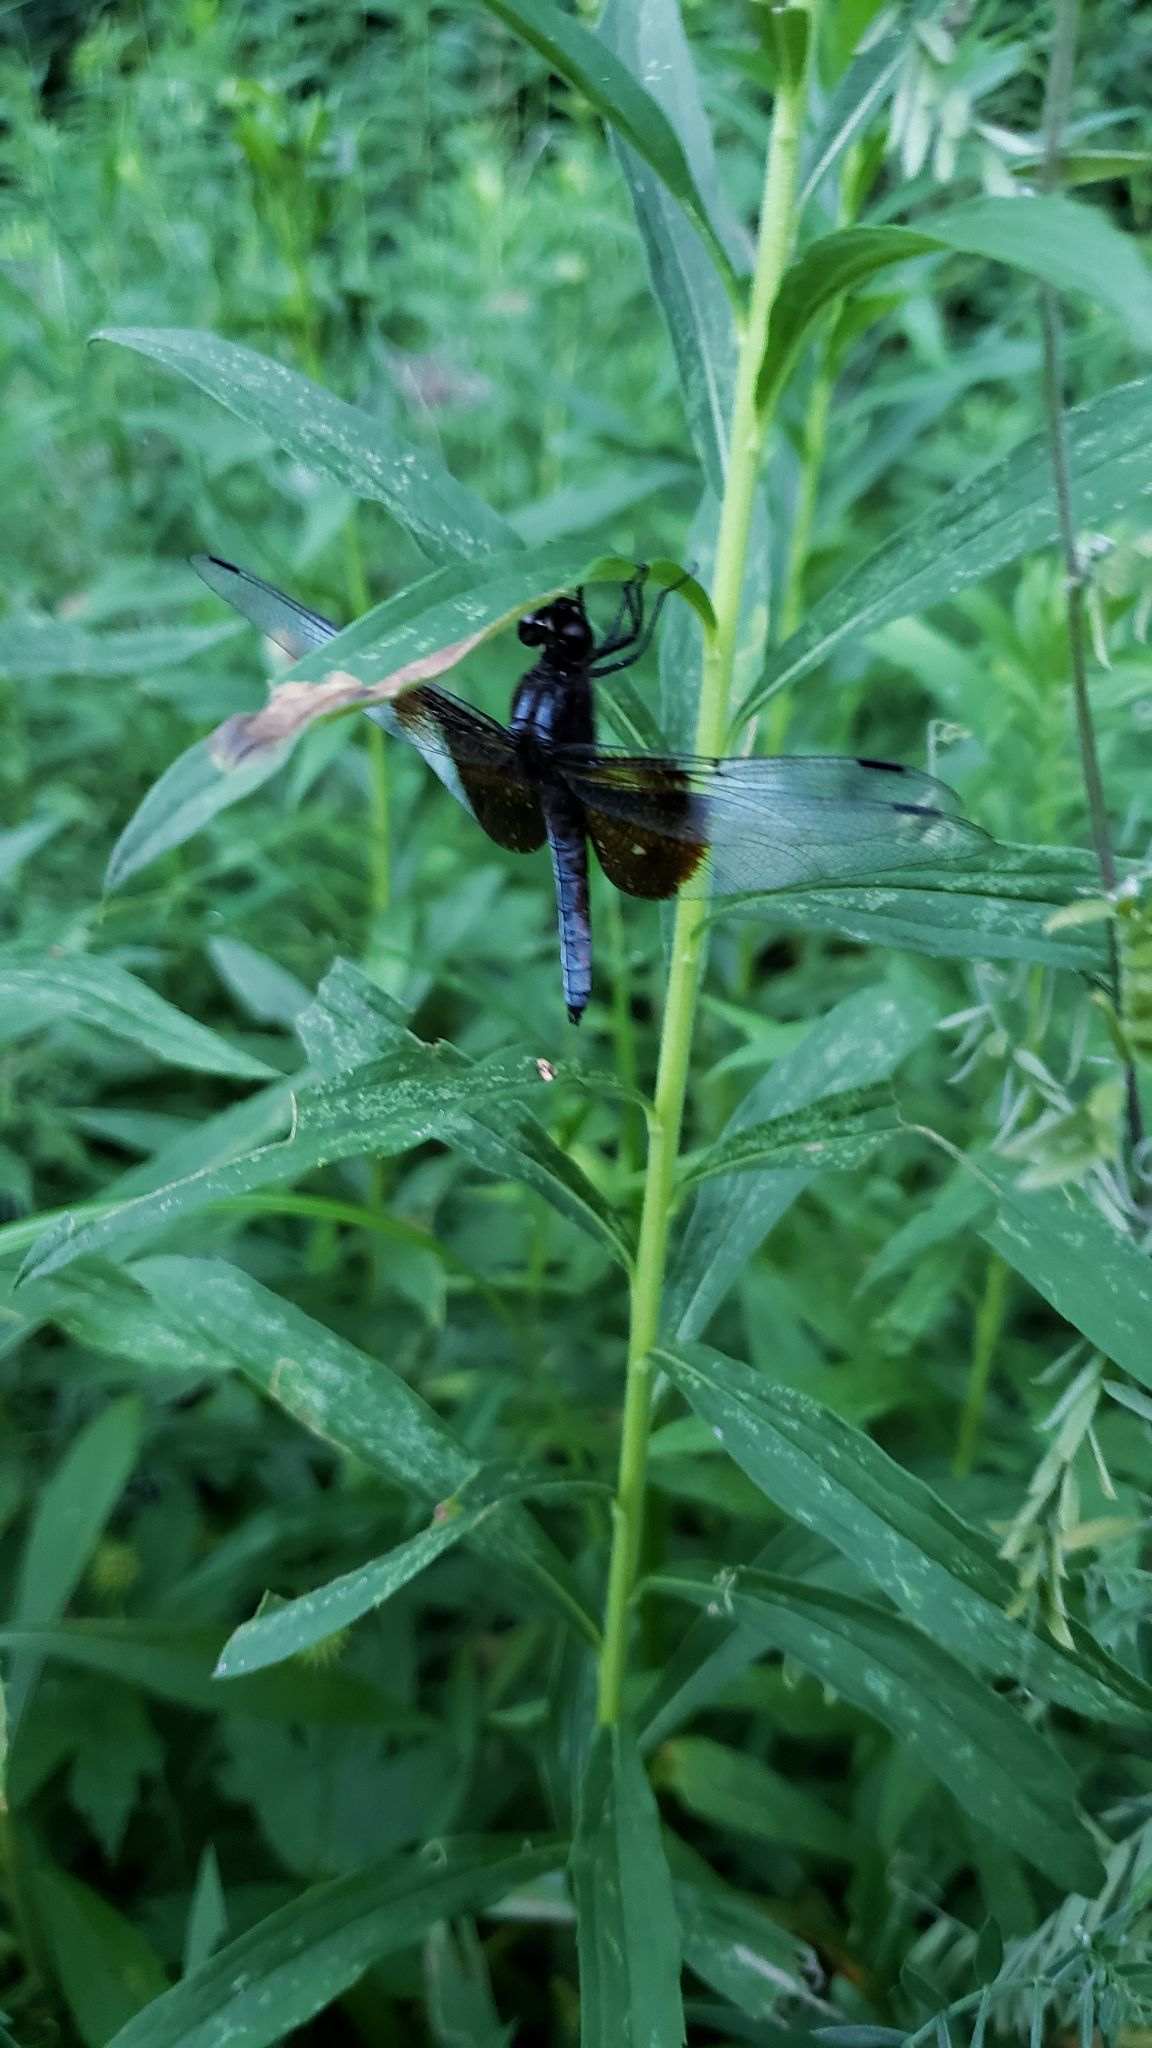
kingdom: Animalia
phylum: Arthropoda
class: Insecta
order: Odonata
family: Libellulidae
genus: Libellula
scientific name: Libellula luctuosa
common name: Widow skimmer
